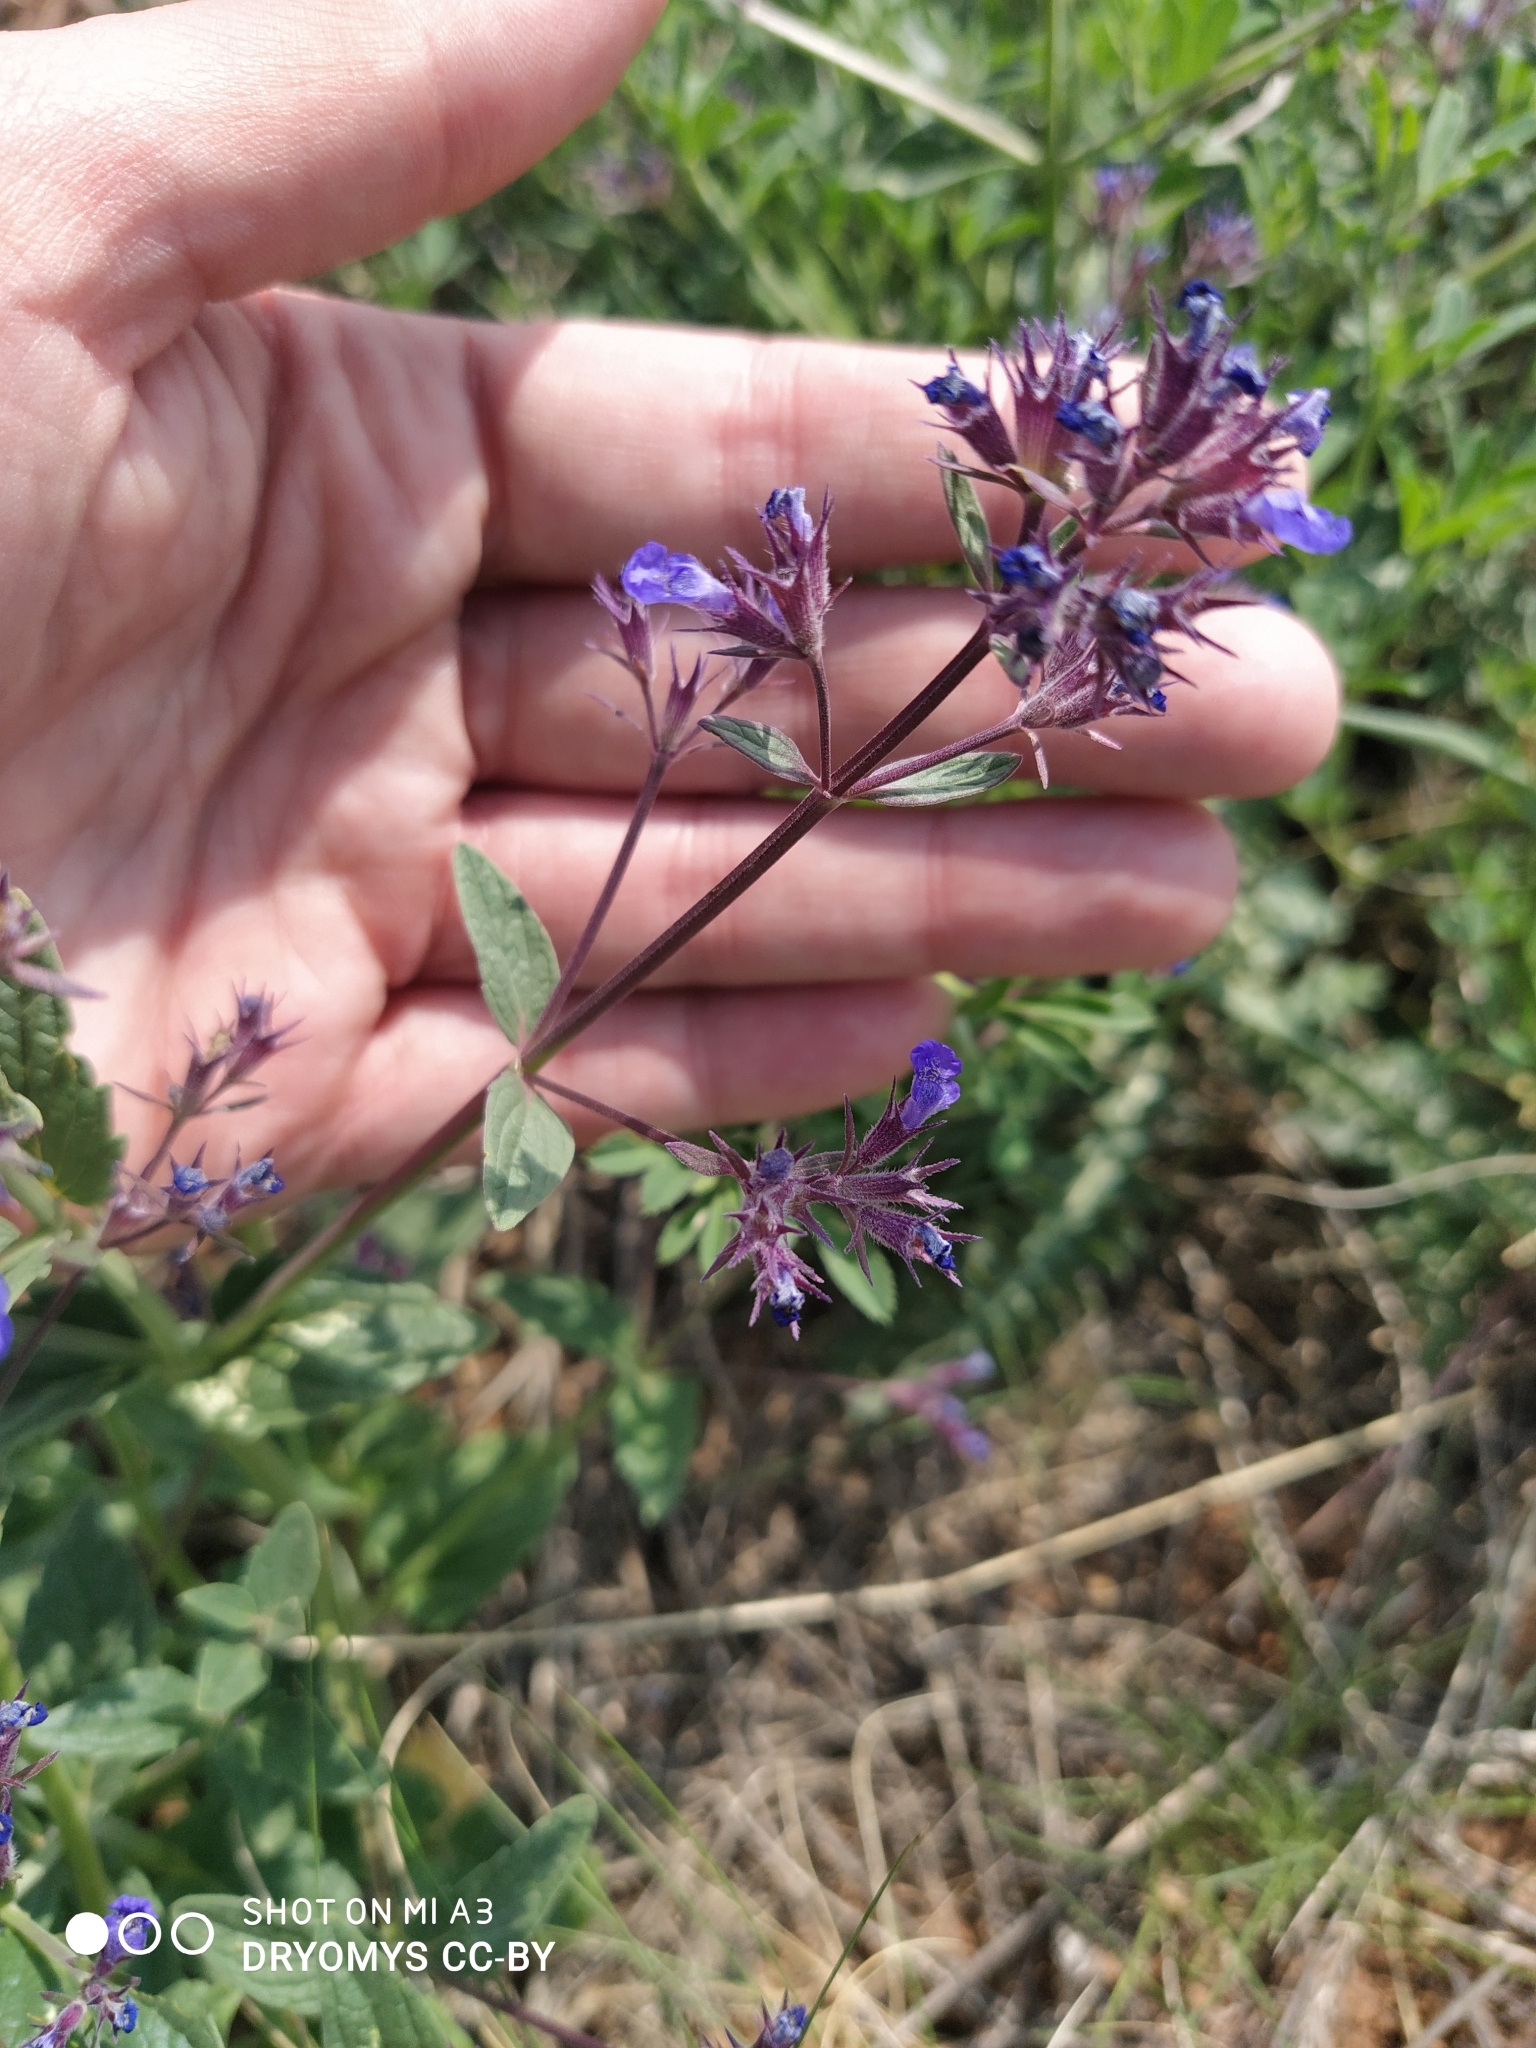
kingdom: Plantae
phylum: Tracheophyta
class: Magnoliopsida
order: Lamiales
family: Lamiaceae
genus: Nepeta
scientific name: Nepeta ucranica
